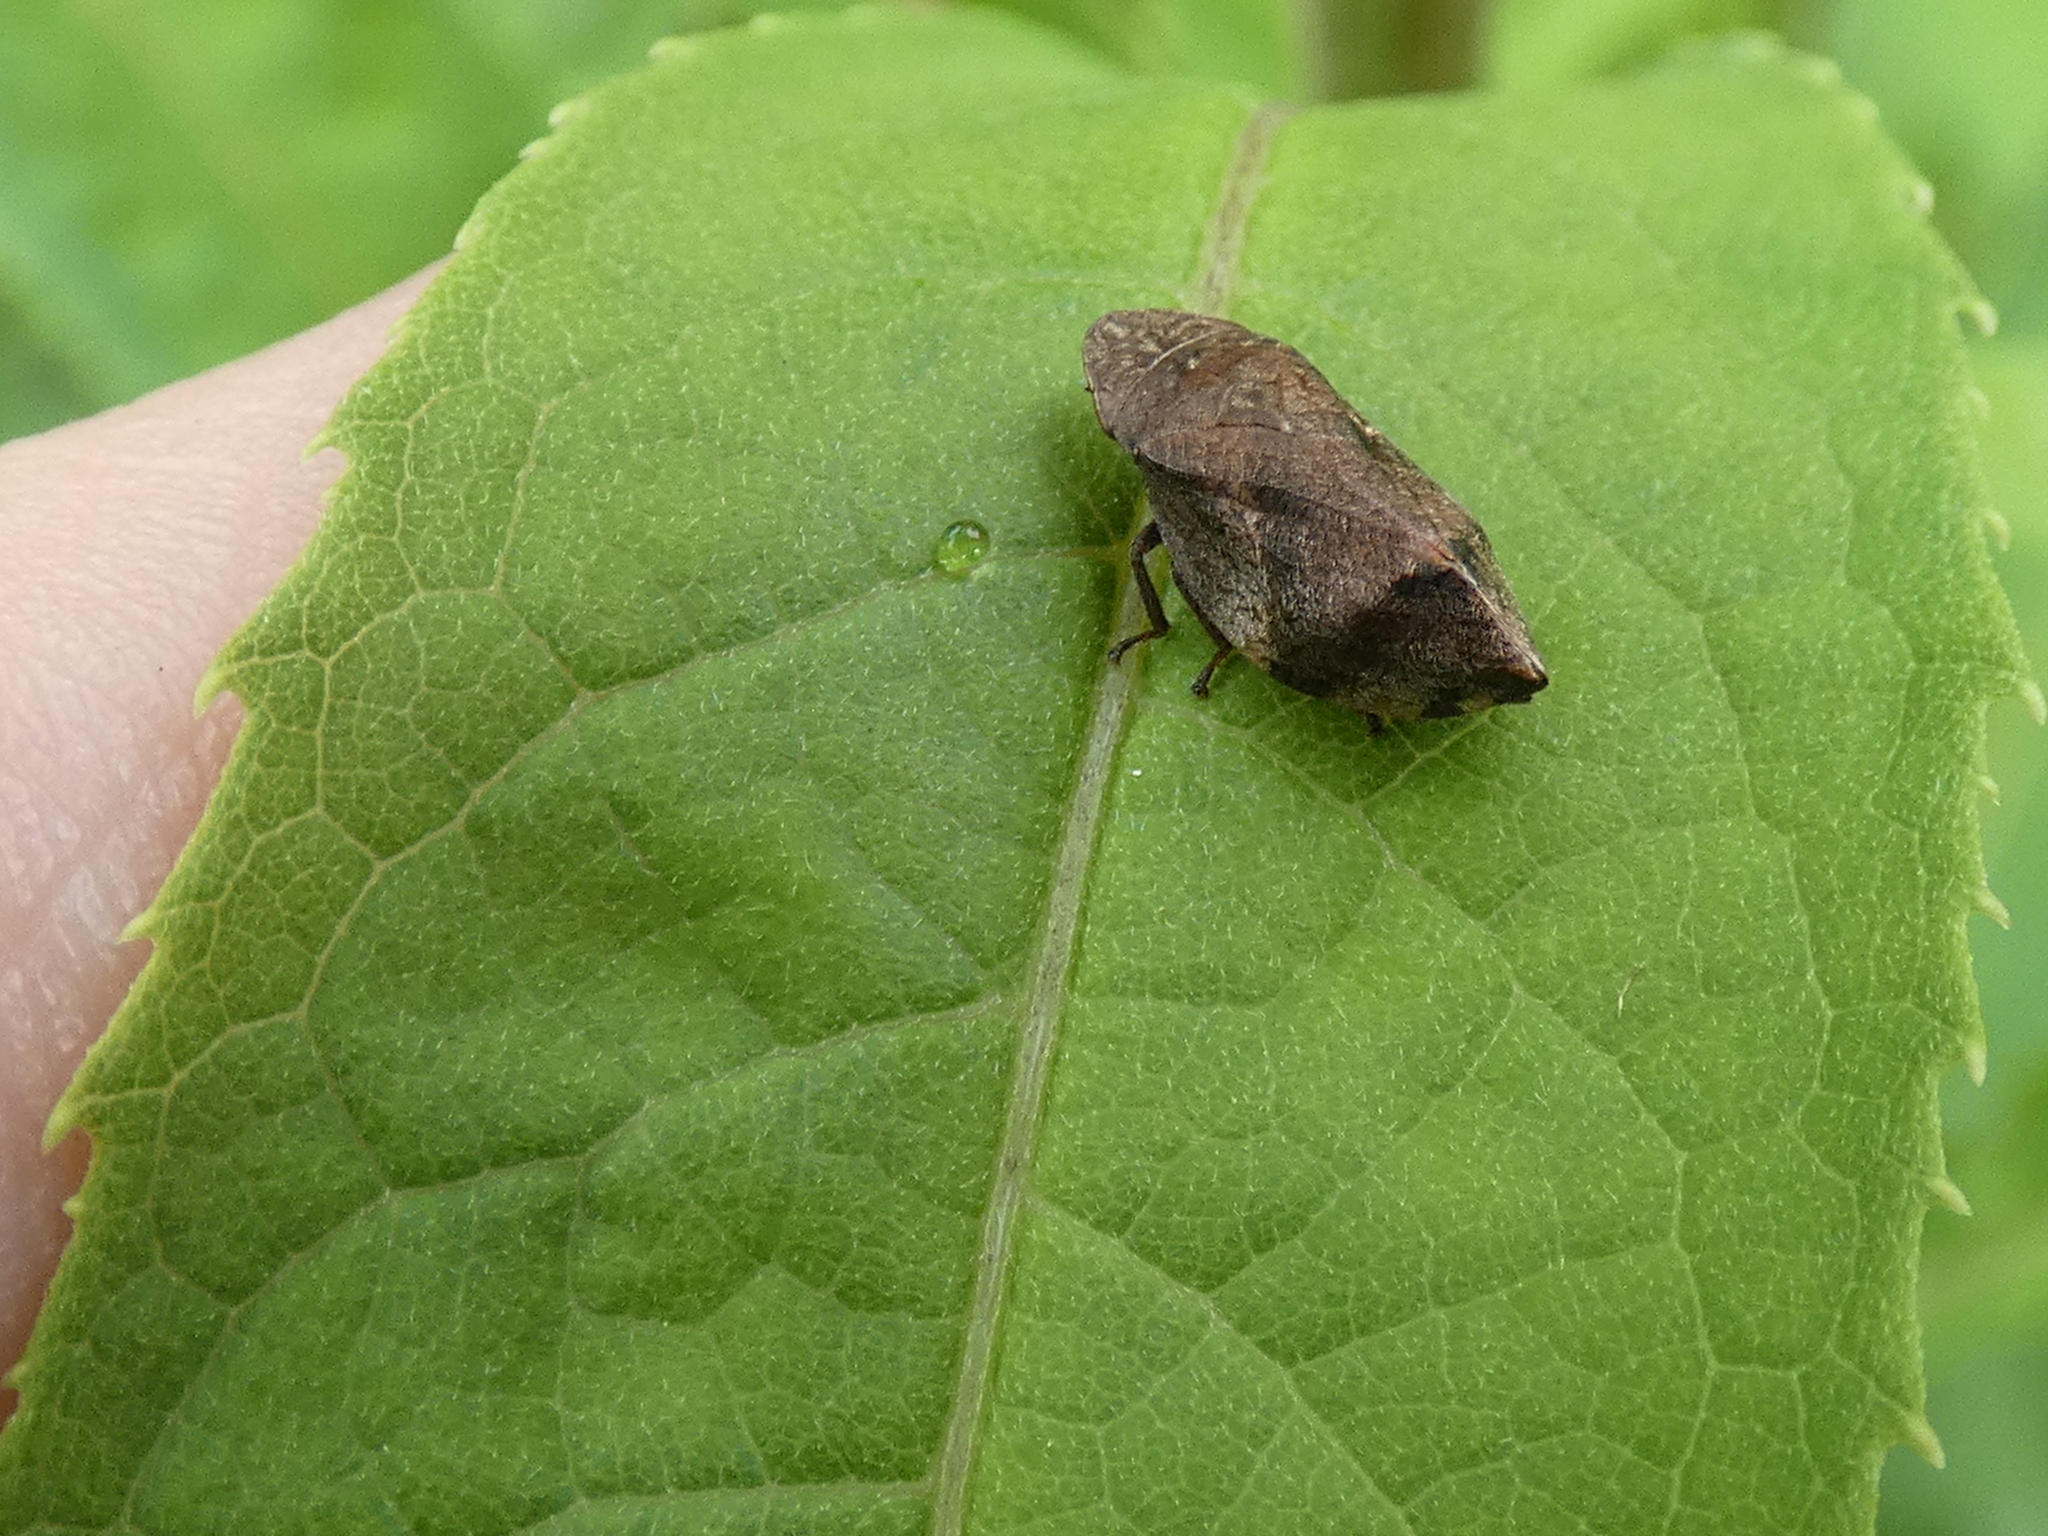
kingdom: Animalia
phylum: Arthropoda
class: Insecta
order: Hemiptera
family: Aphrophoridae
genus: Lepyronia
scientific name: Lepyronia quadrangularis
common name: Diamond-backed spittlebug
